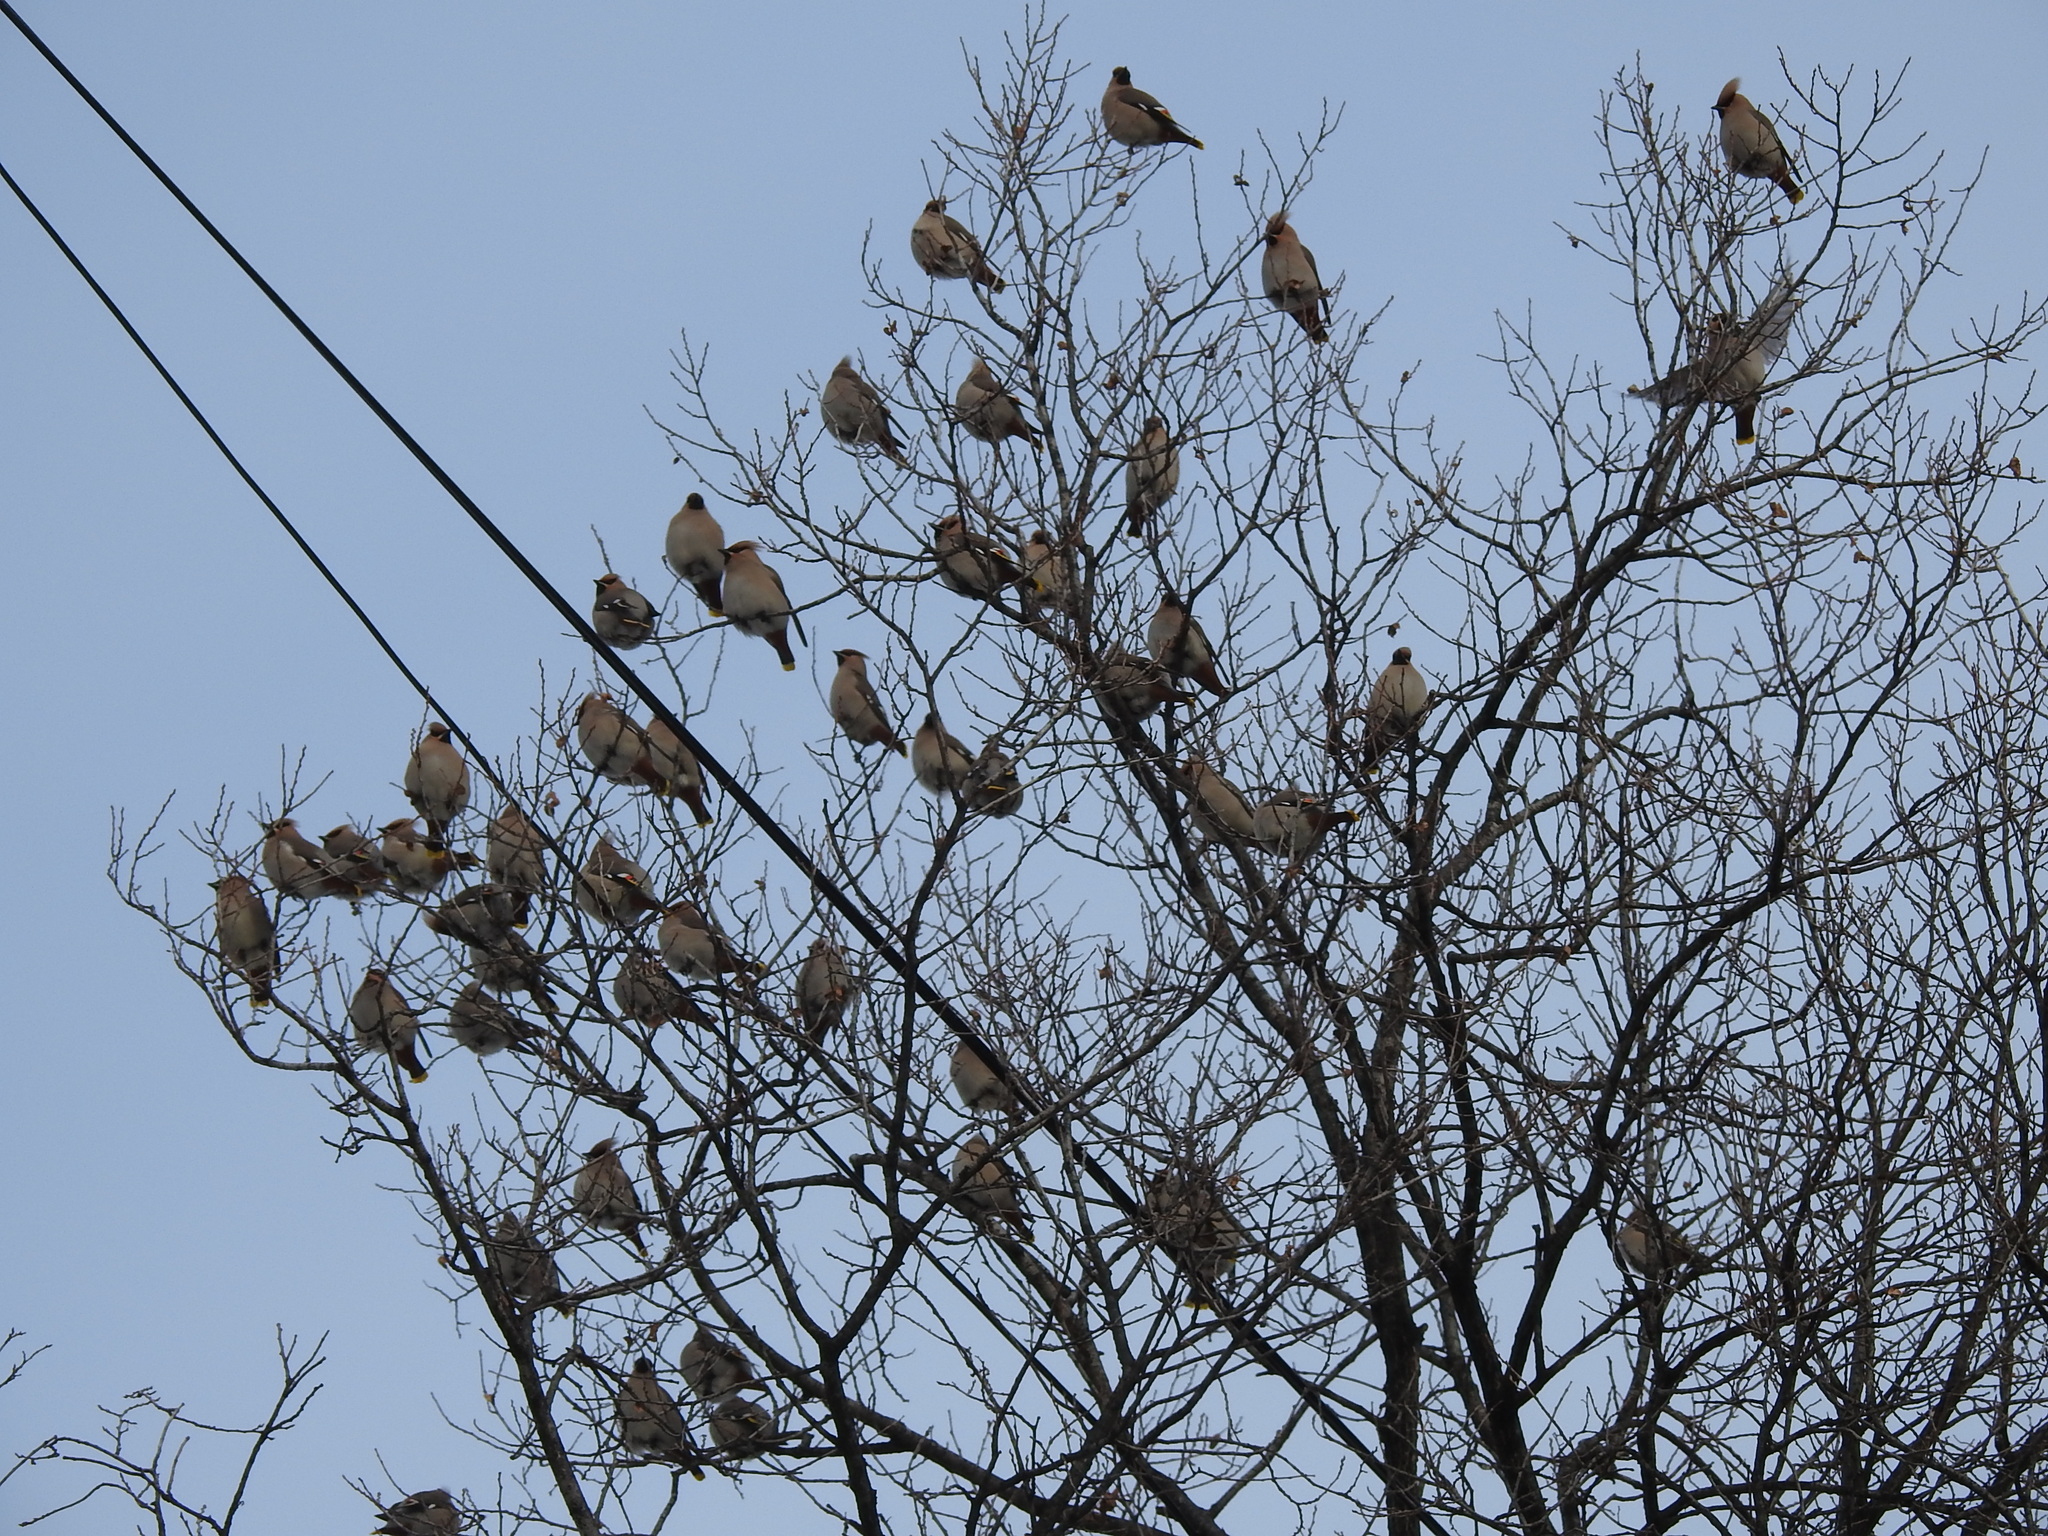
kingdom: Animalia
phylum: Chordata
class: Aves
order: Passeriformes
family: Bombycillidae
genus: Bombycilla
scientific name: Bombycilla garrulus
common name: Bohemian waxwing
